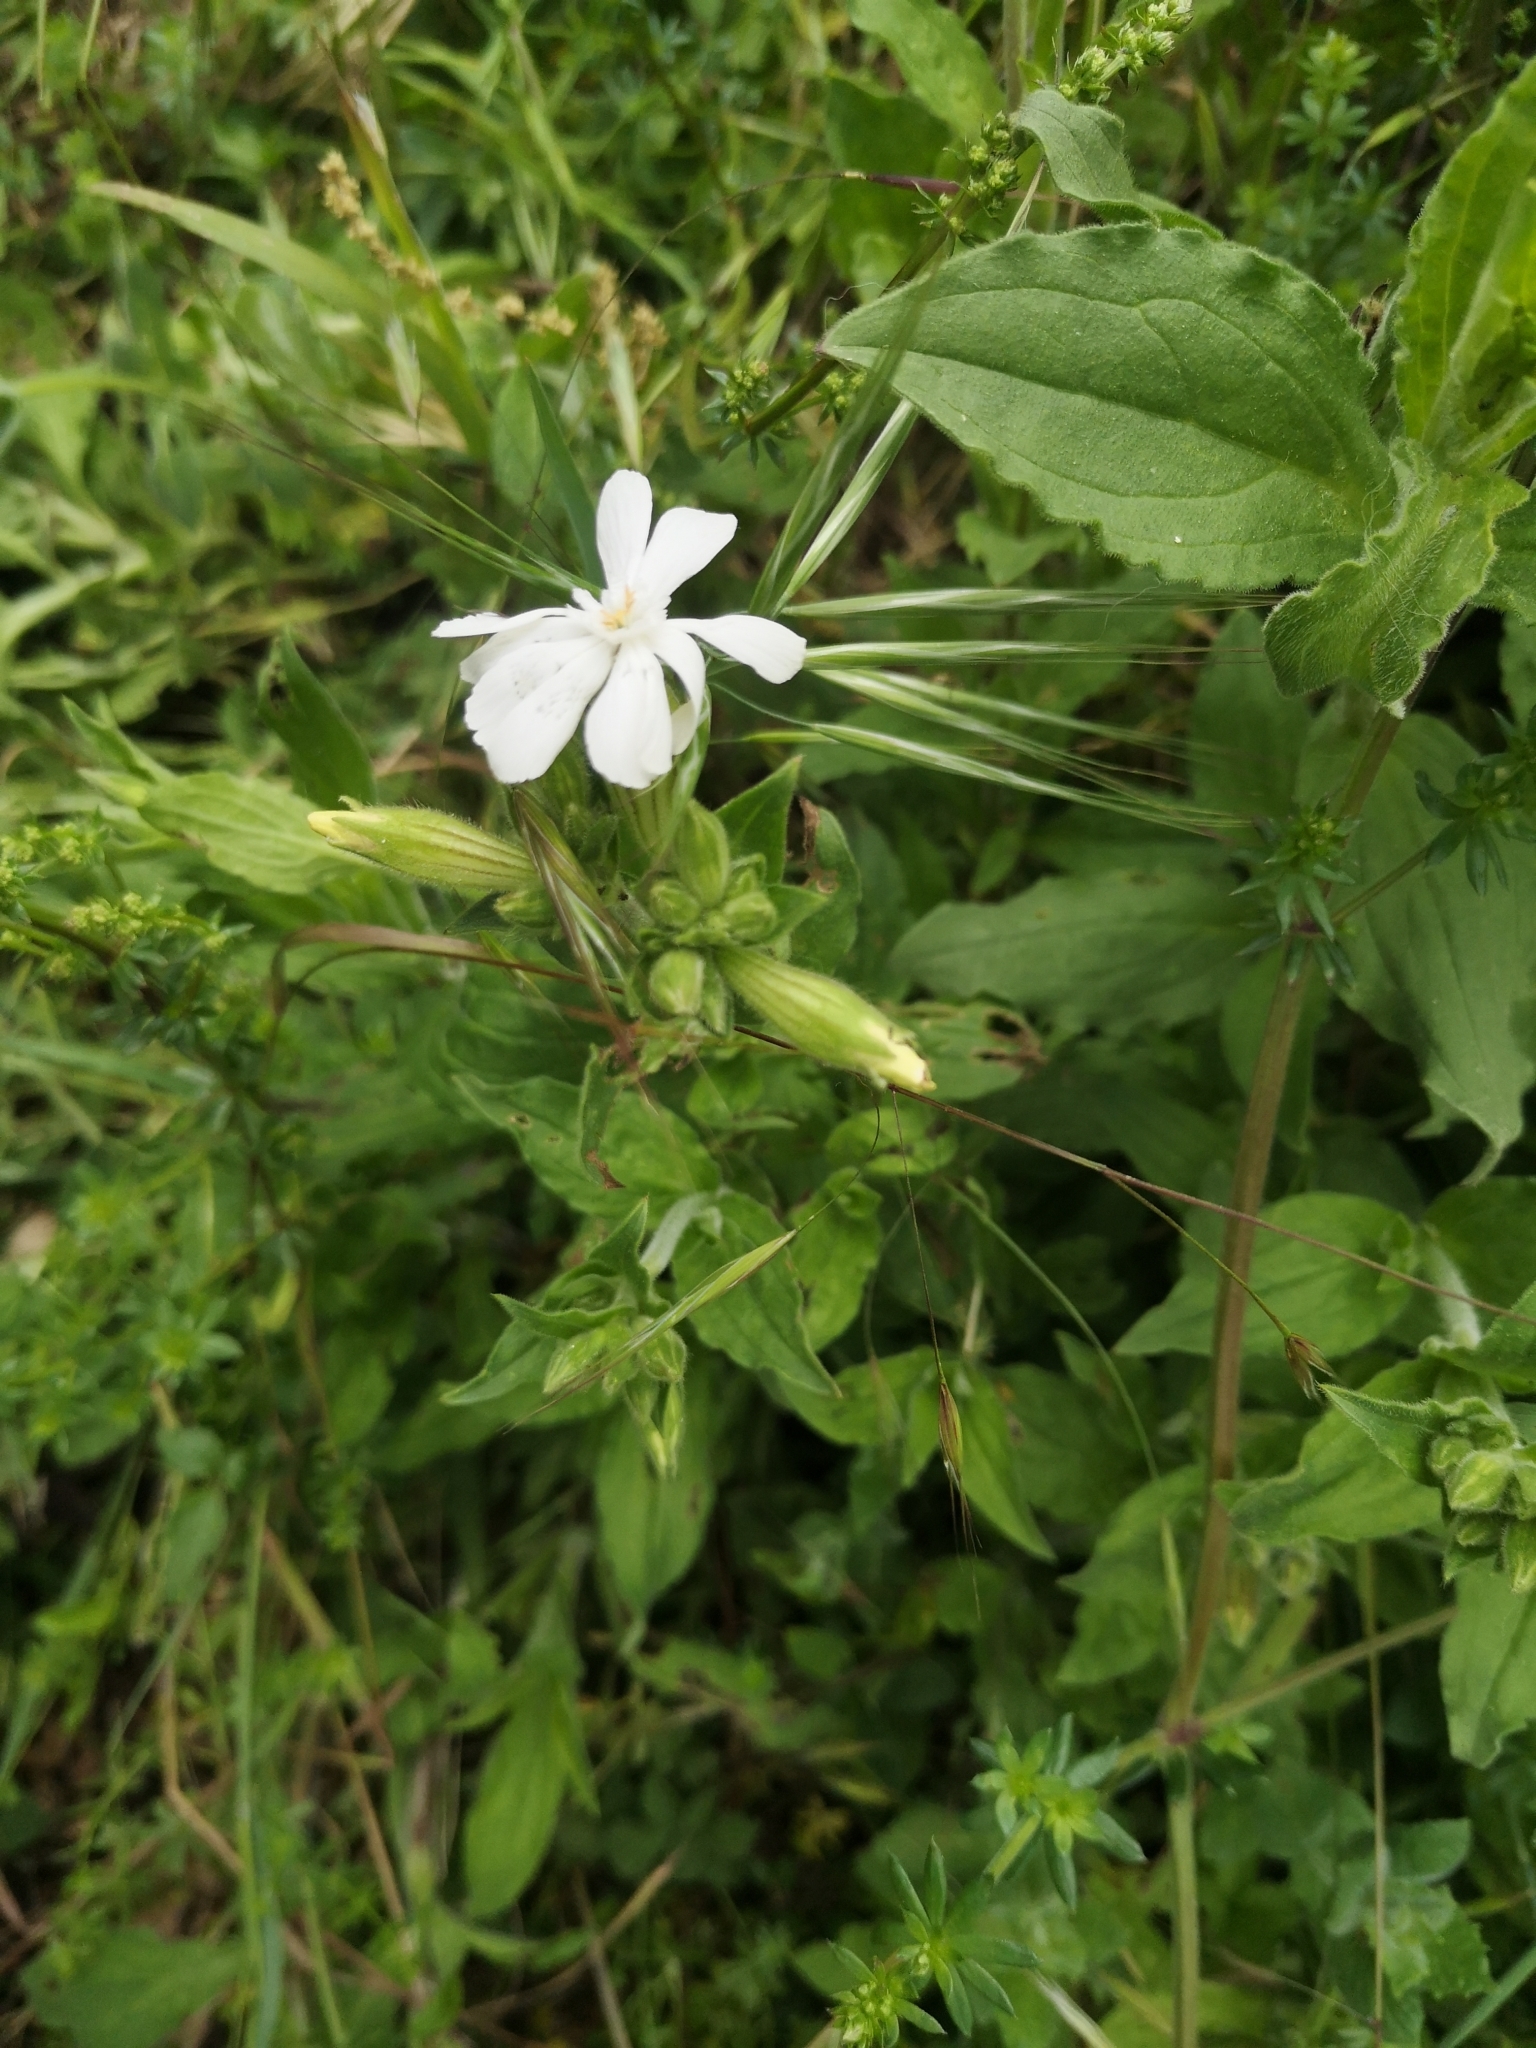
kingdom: Plantae
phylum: Tracheophyta
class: Magnoliopsida
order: Caryophyllales
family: Caryophyllaceae
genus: Silene
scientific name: Silene latifolia
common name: White campion
